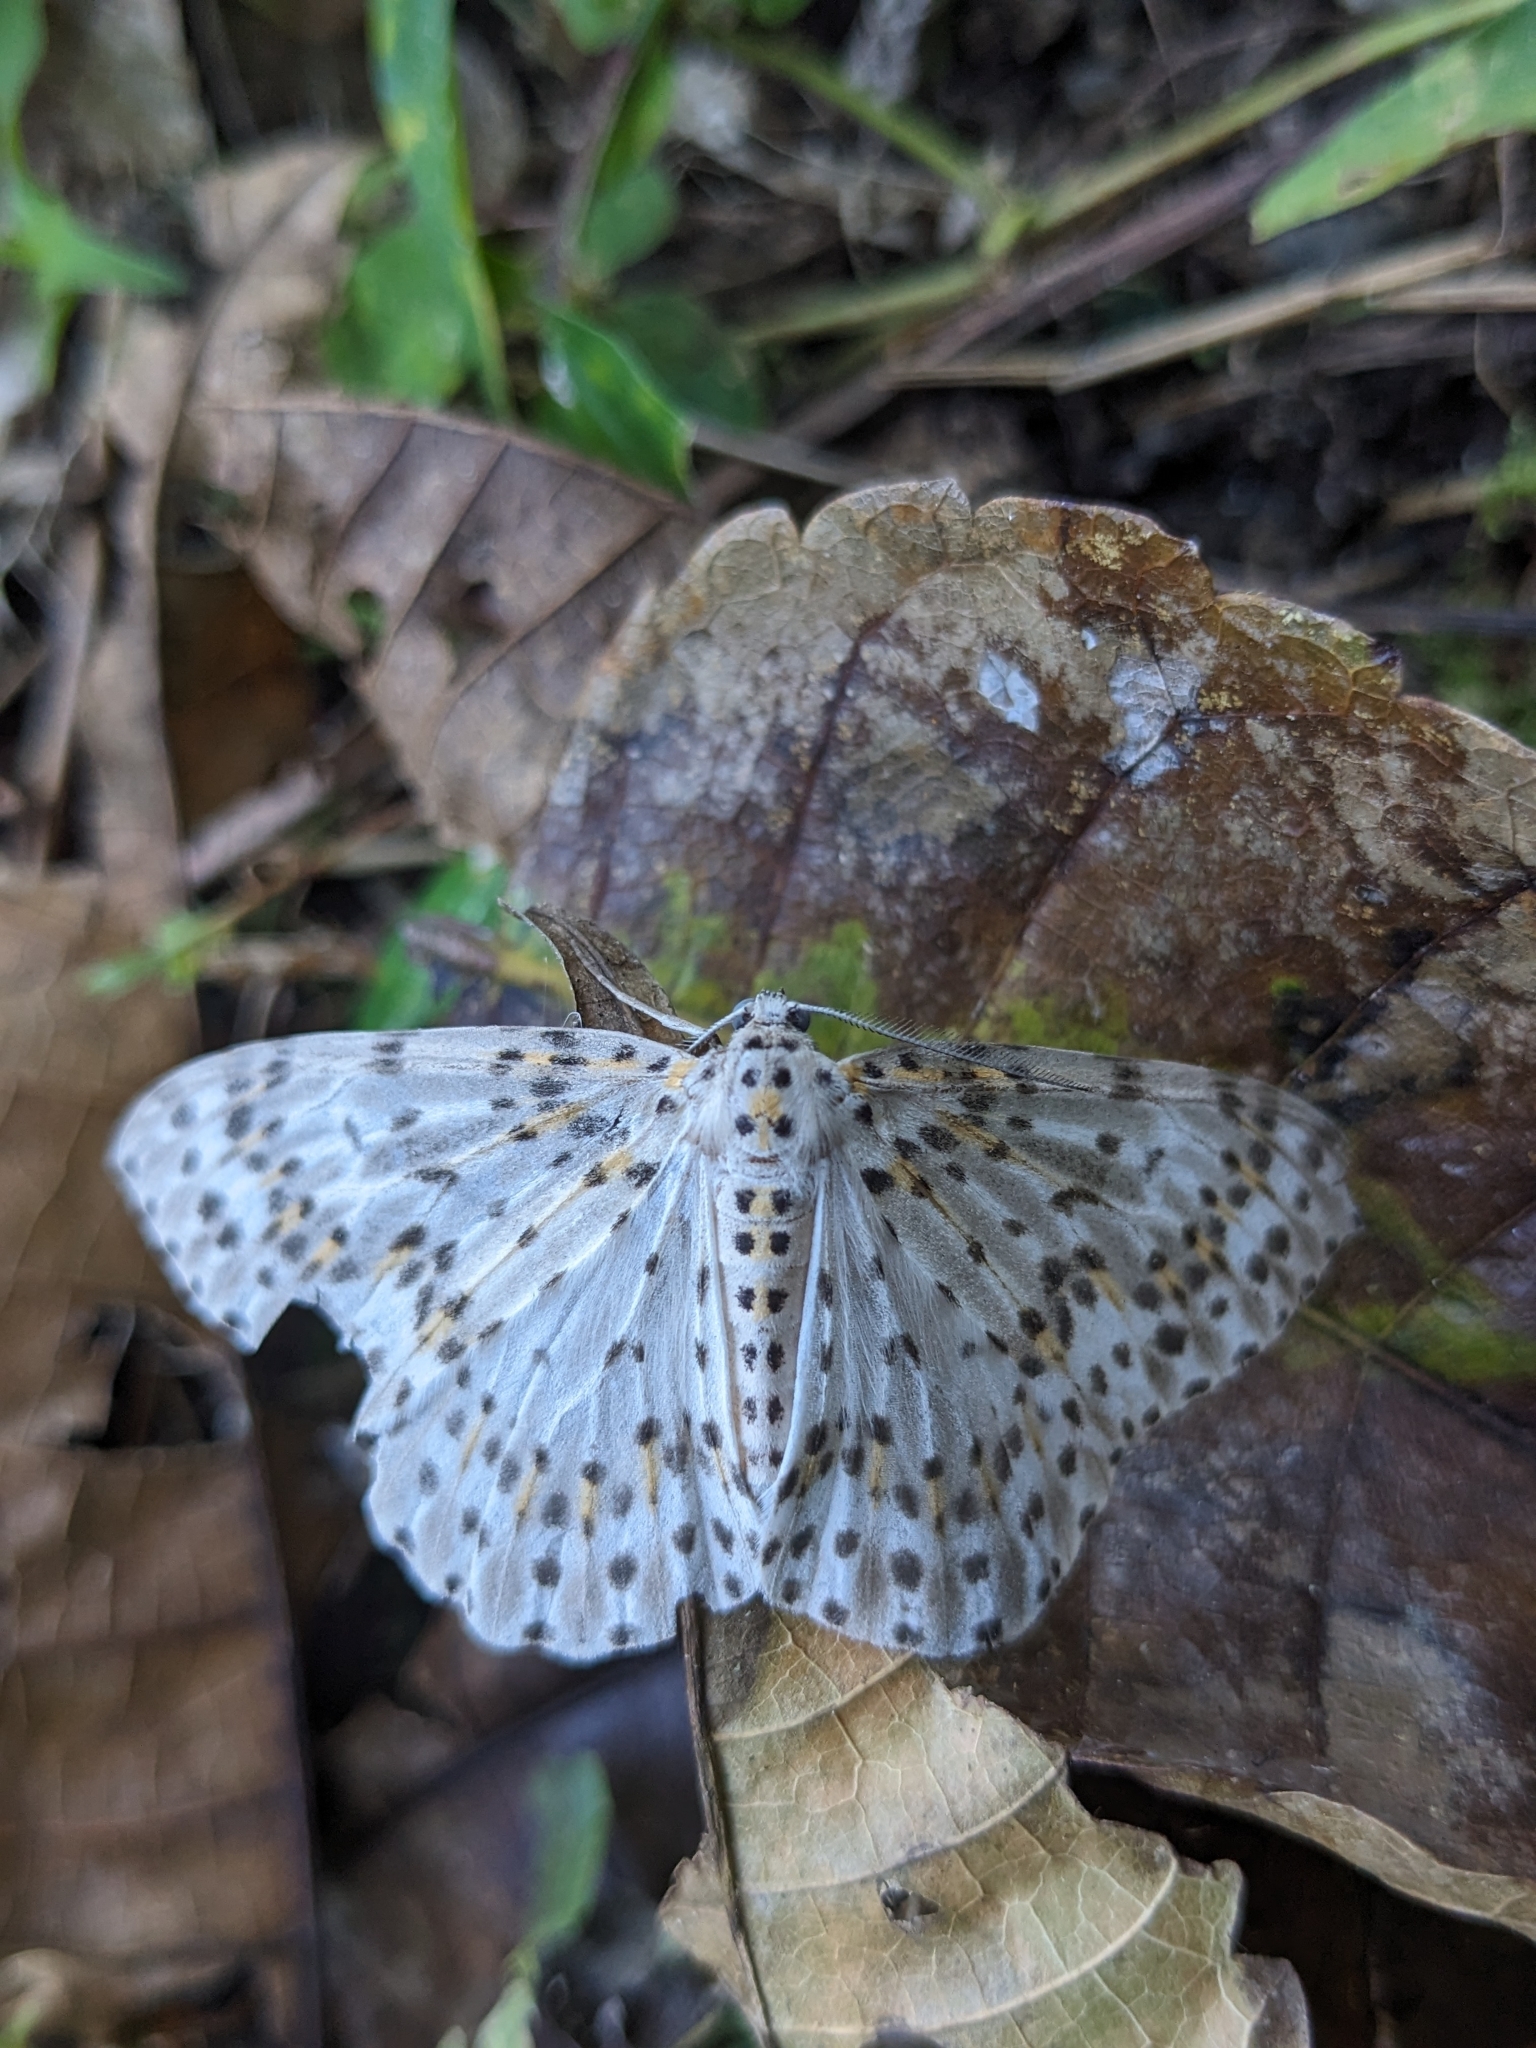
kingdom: Animalia
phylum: Arthropoda
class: Insecta
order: Lepidoptera
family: Geometridae
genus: Metapercnia
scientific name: Metapercnia ductaria
